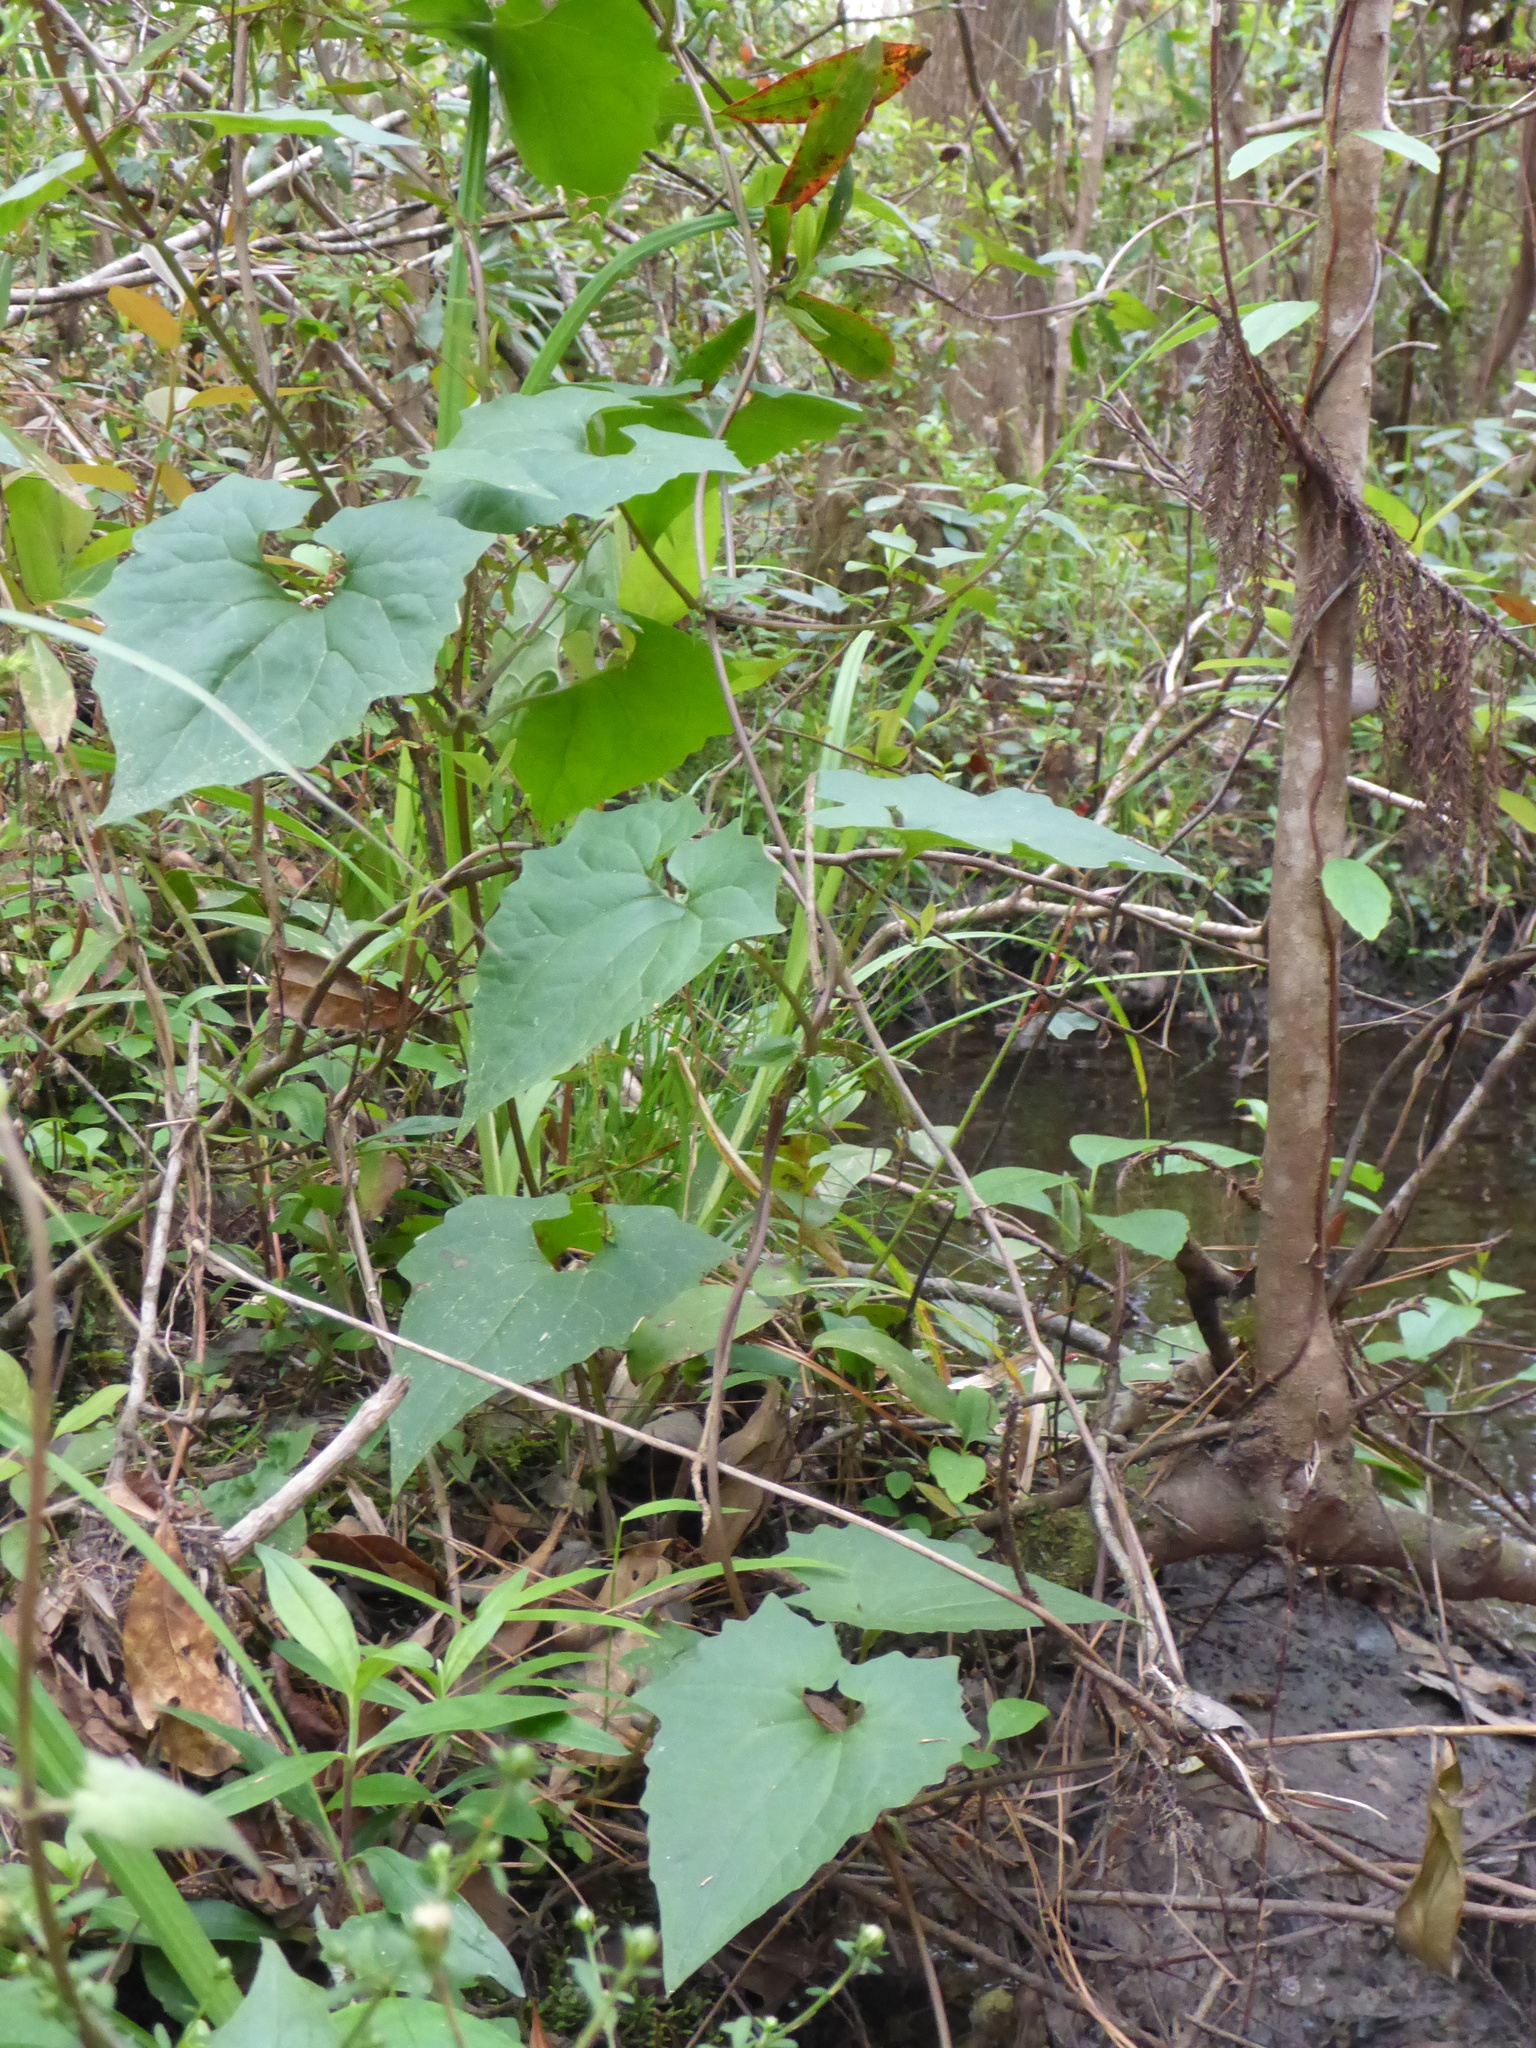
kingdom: Plantae
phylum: Tracheophyta
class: Magnoliopsida
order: Asterales
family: Asteraceae
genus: Mikania
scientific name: Mikania scandens
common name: Climbing hempvine
